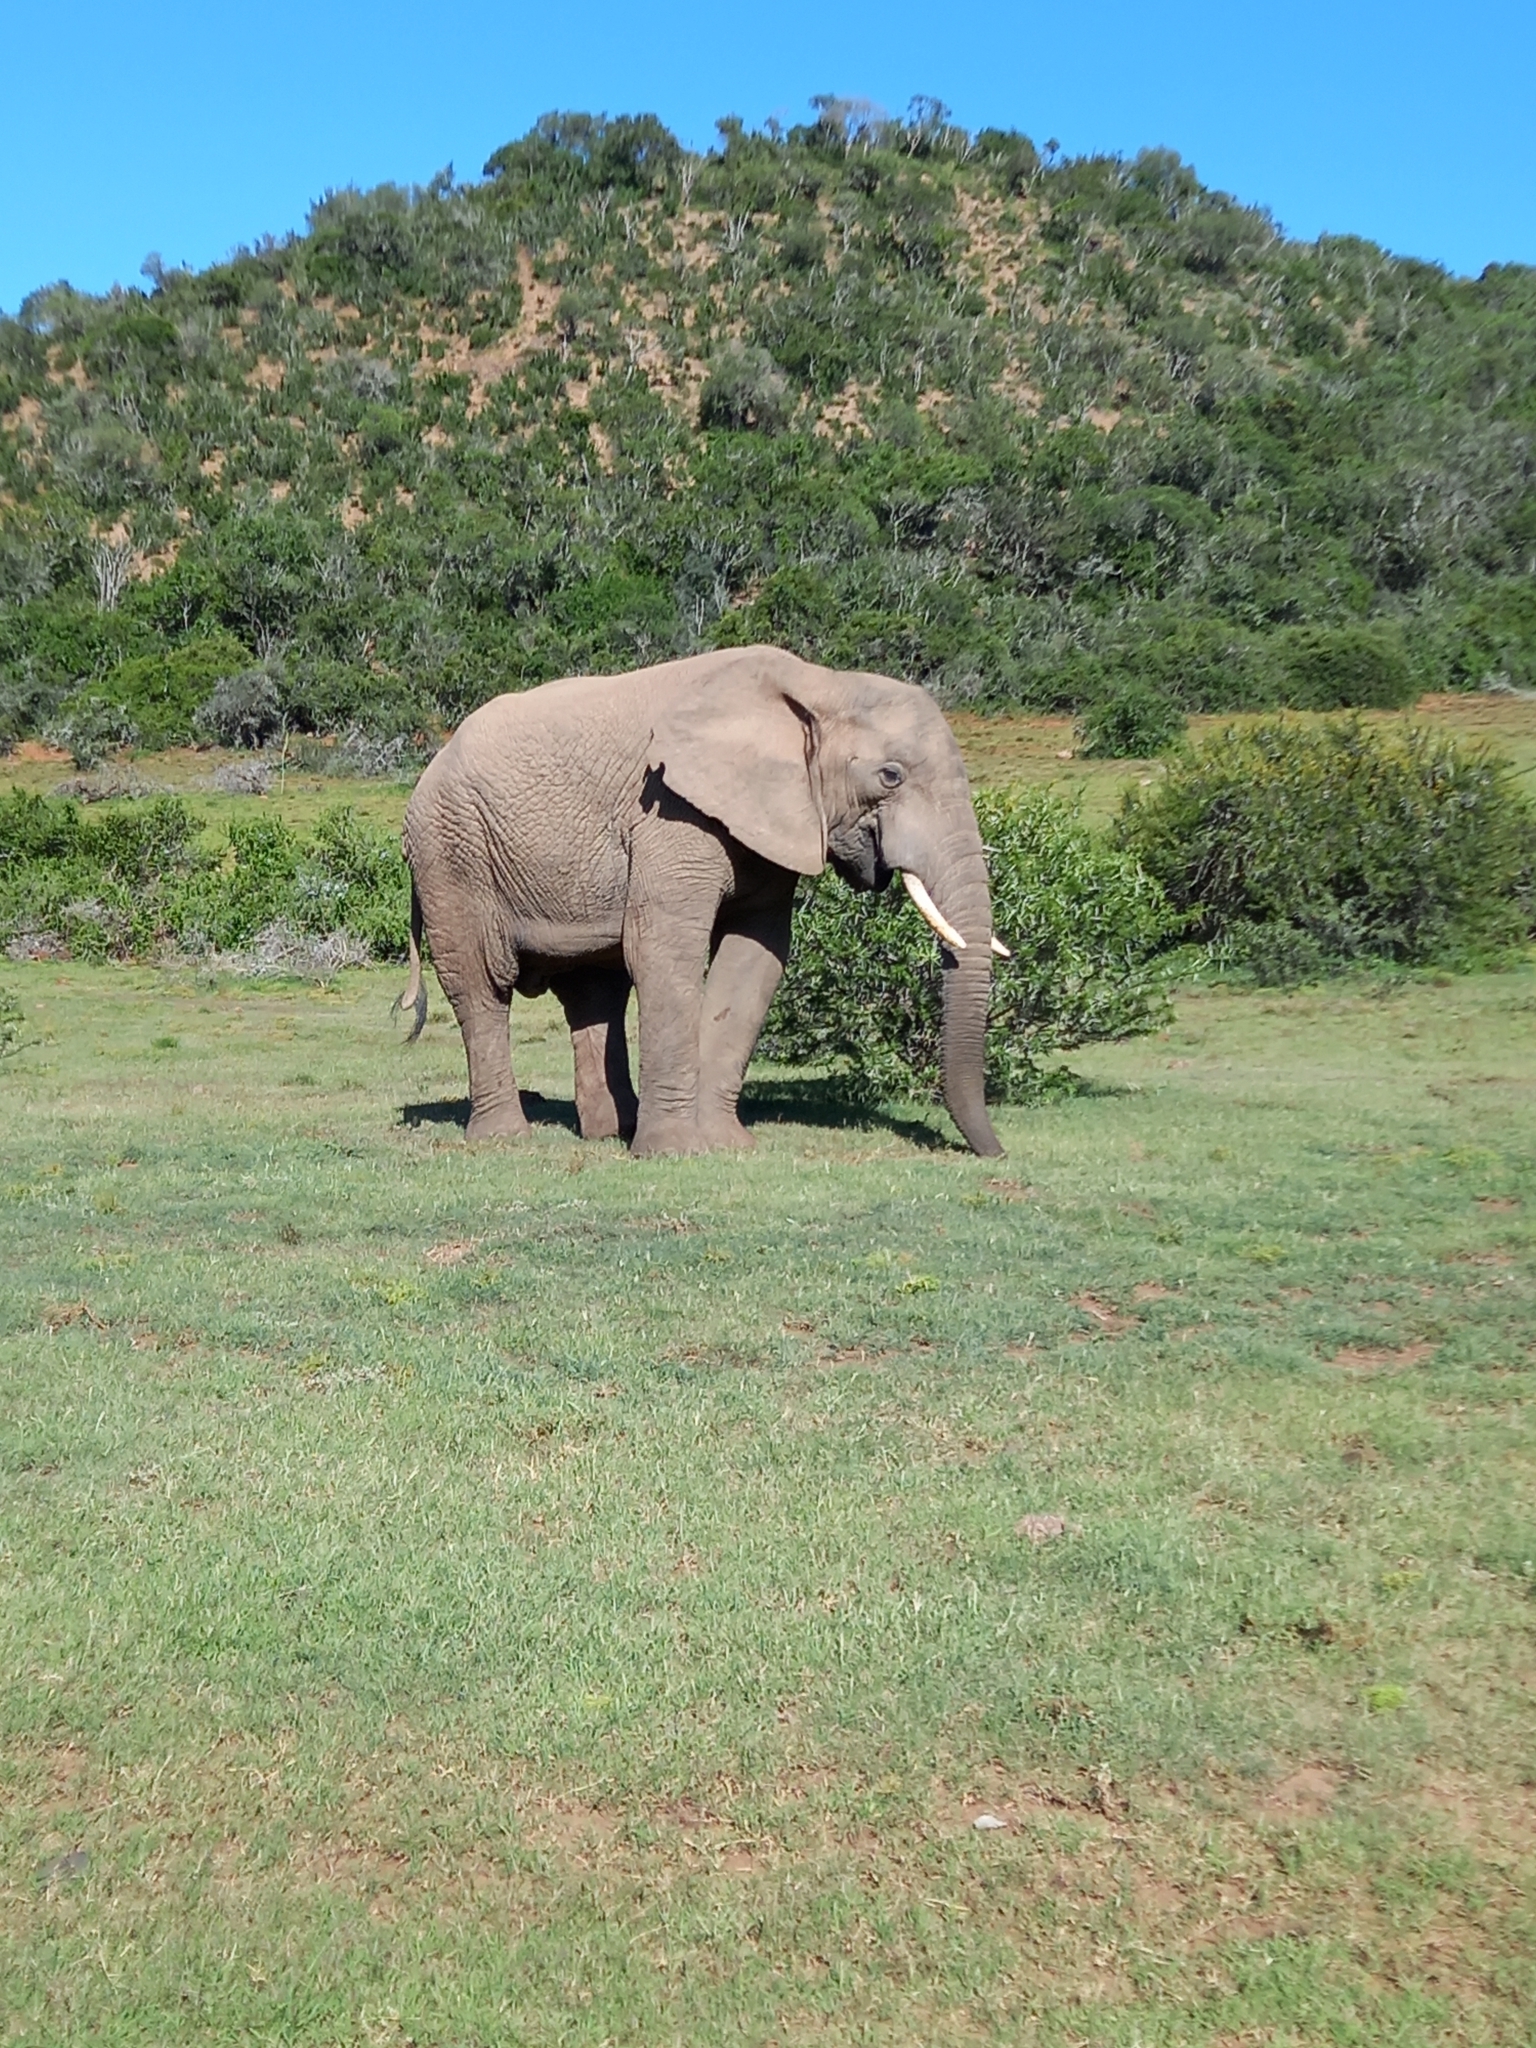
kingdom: Animalia
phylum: Chordata
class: Mammalia
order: Proboscidea
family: Elephantidae
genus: Loxodonta
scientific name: Loxodonta africana
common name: African elephant
